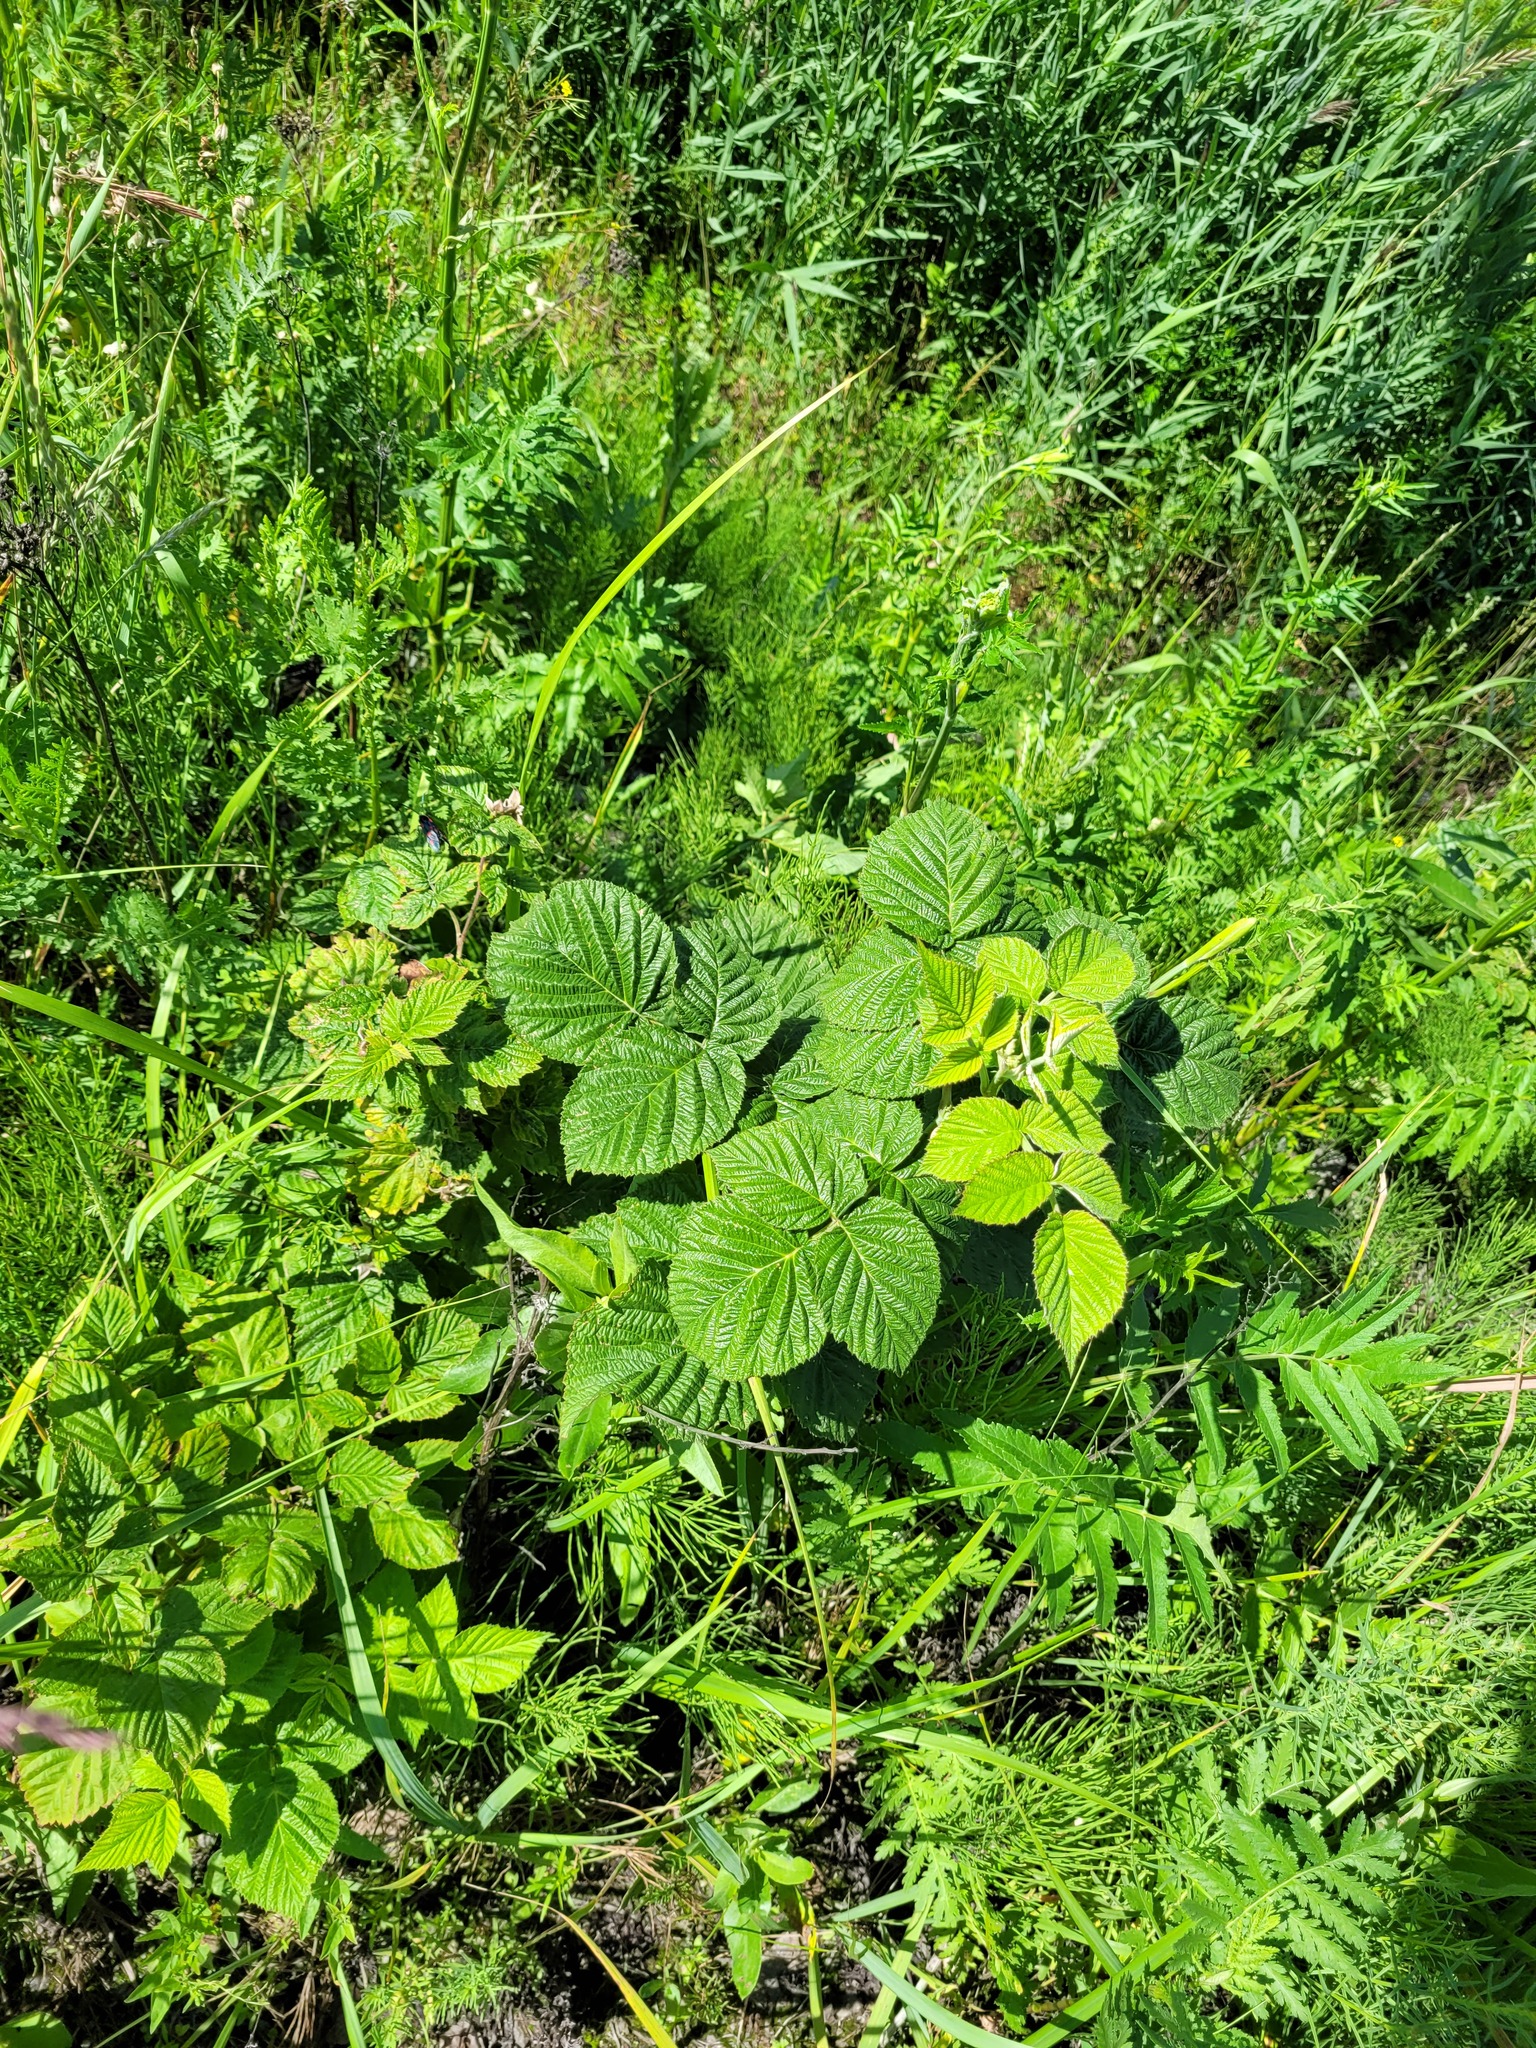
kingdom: Plantae
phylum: Tracheophyta
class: Magnoliopsida
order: Rosales
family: Rosaceae
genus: Rubus
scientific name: Rubus idaeus
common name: Raspberry
